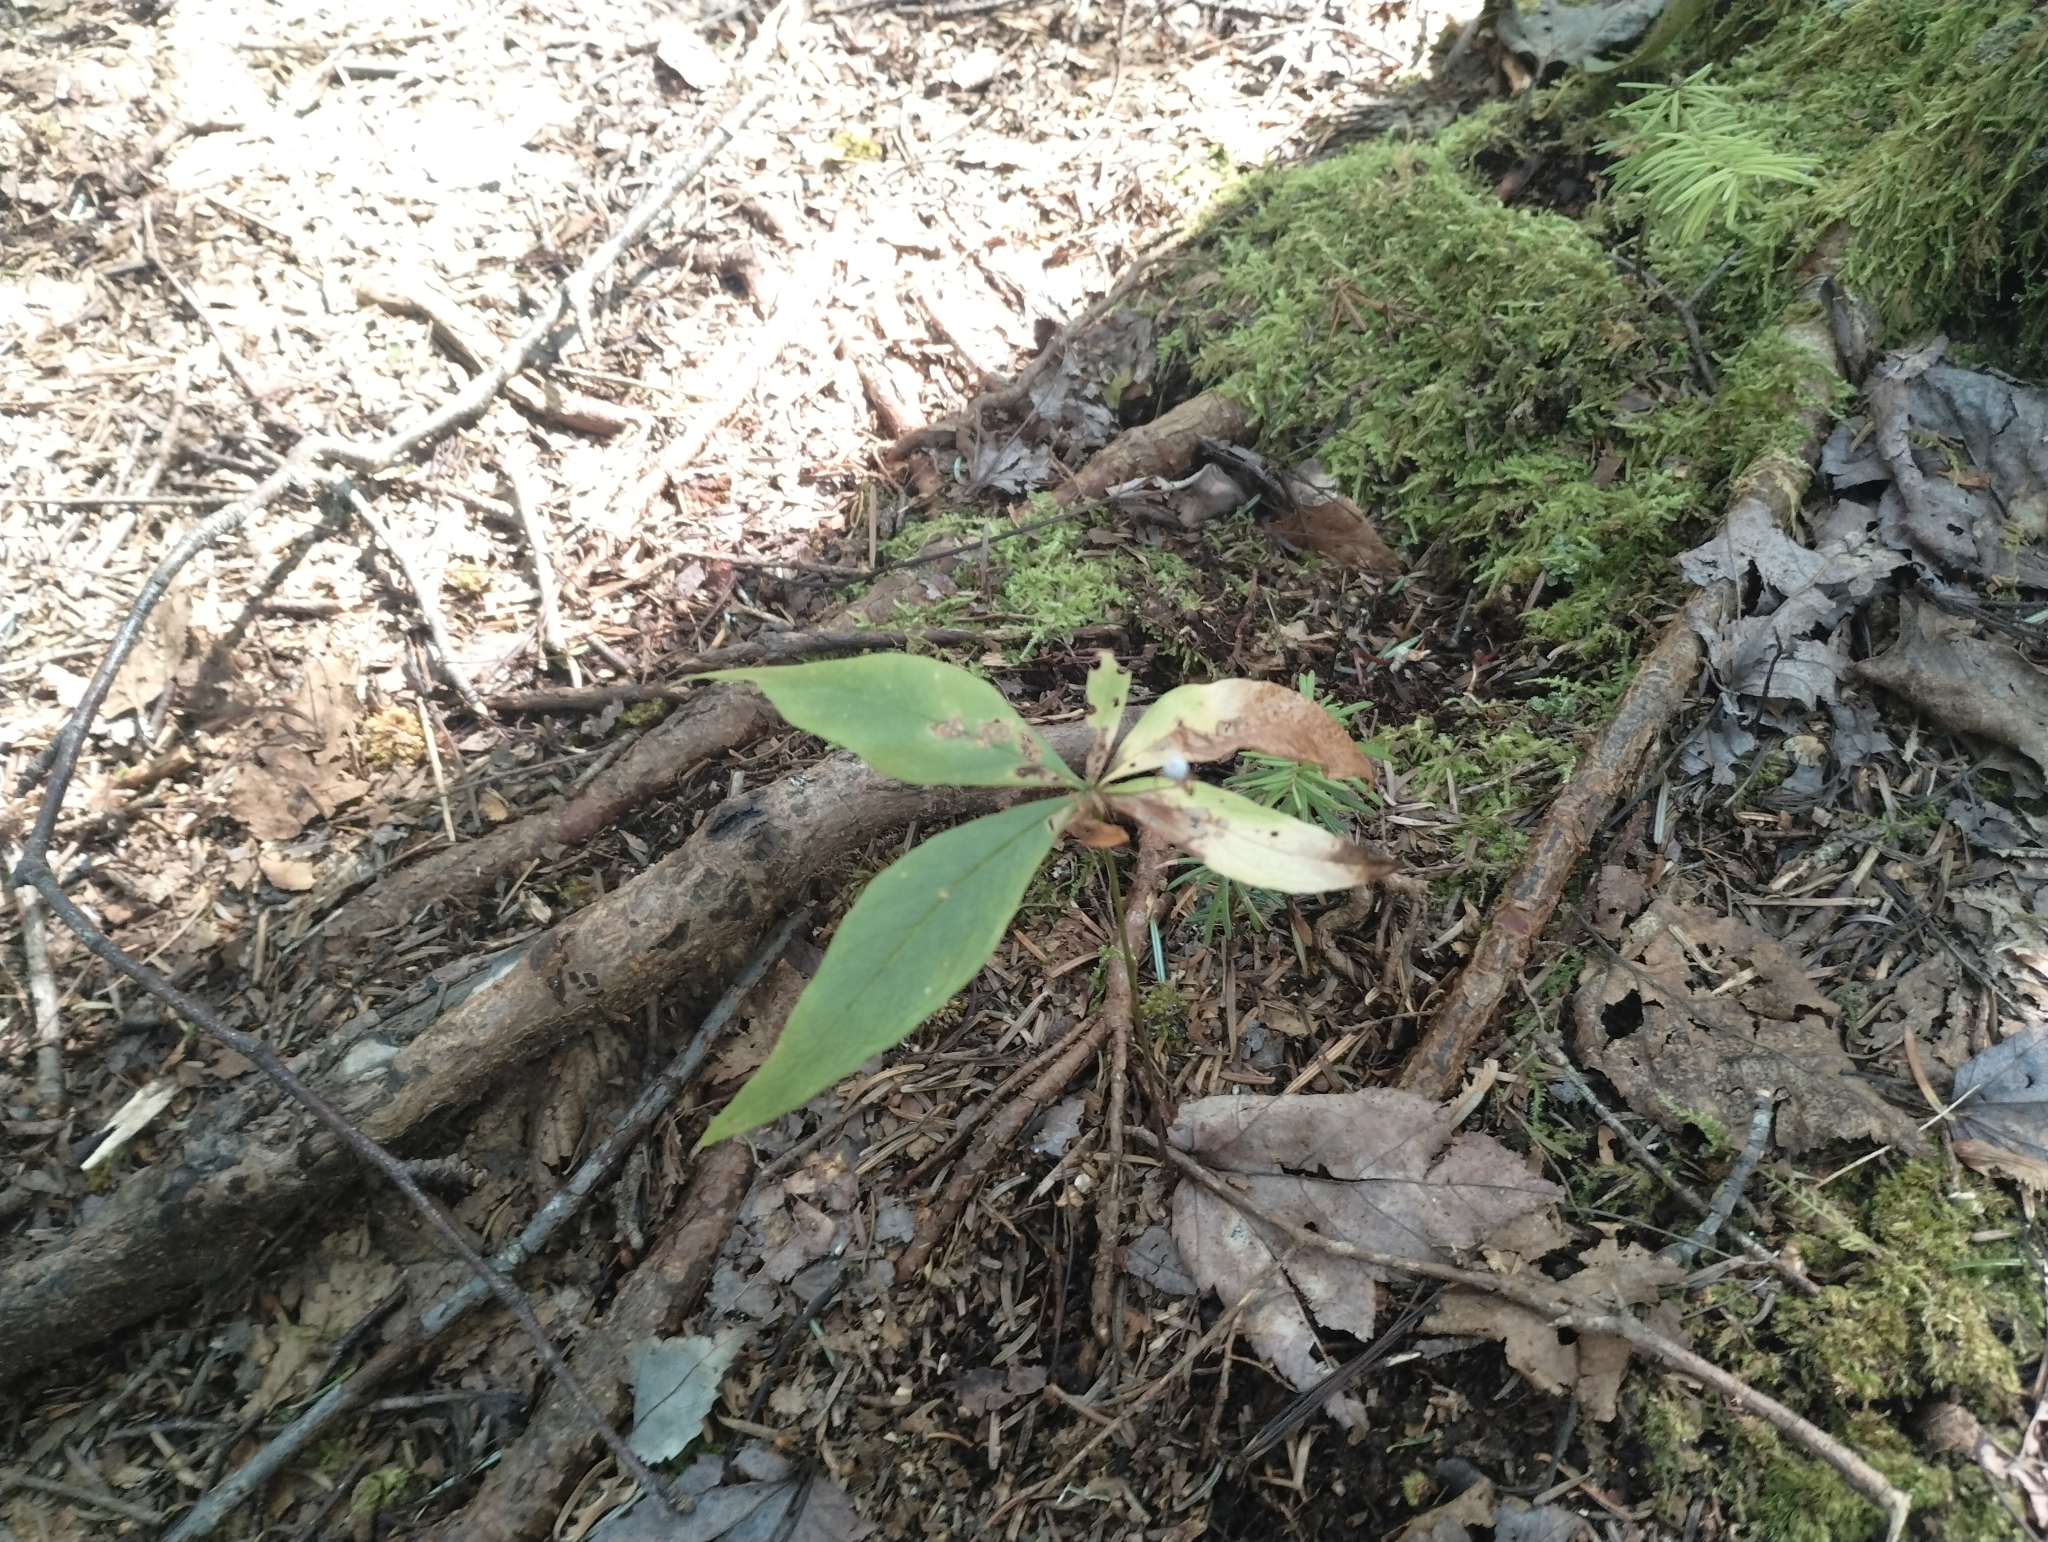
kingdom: Plantae
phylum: Tracheophyta
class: Magnoliopsida
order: Ericales
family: Primulaceae
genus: Lysimachia
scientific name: Lysimachia borealis
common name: American starflower
